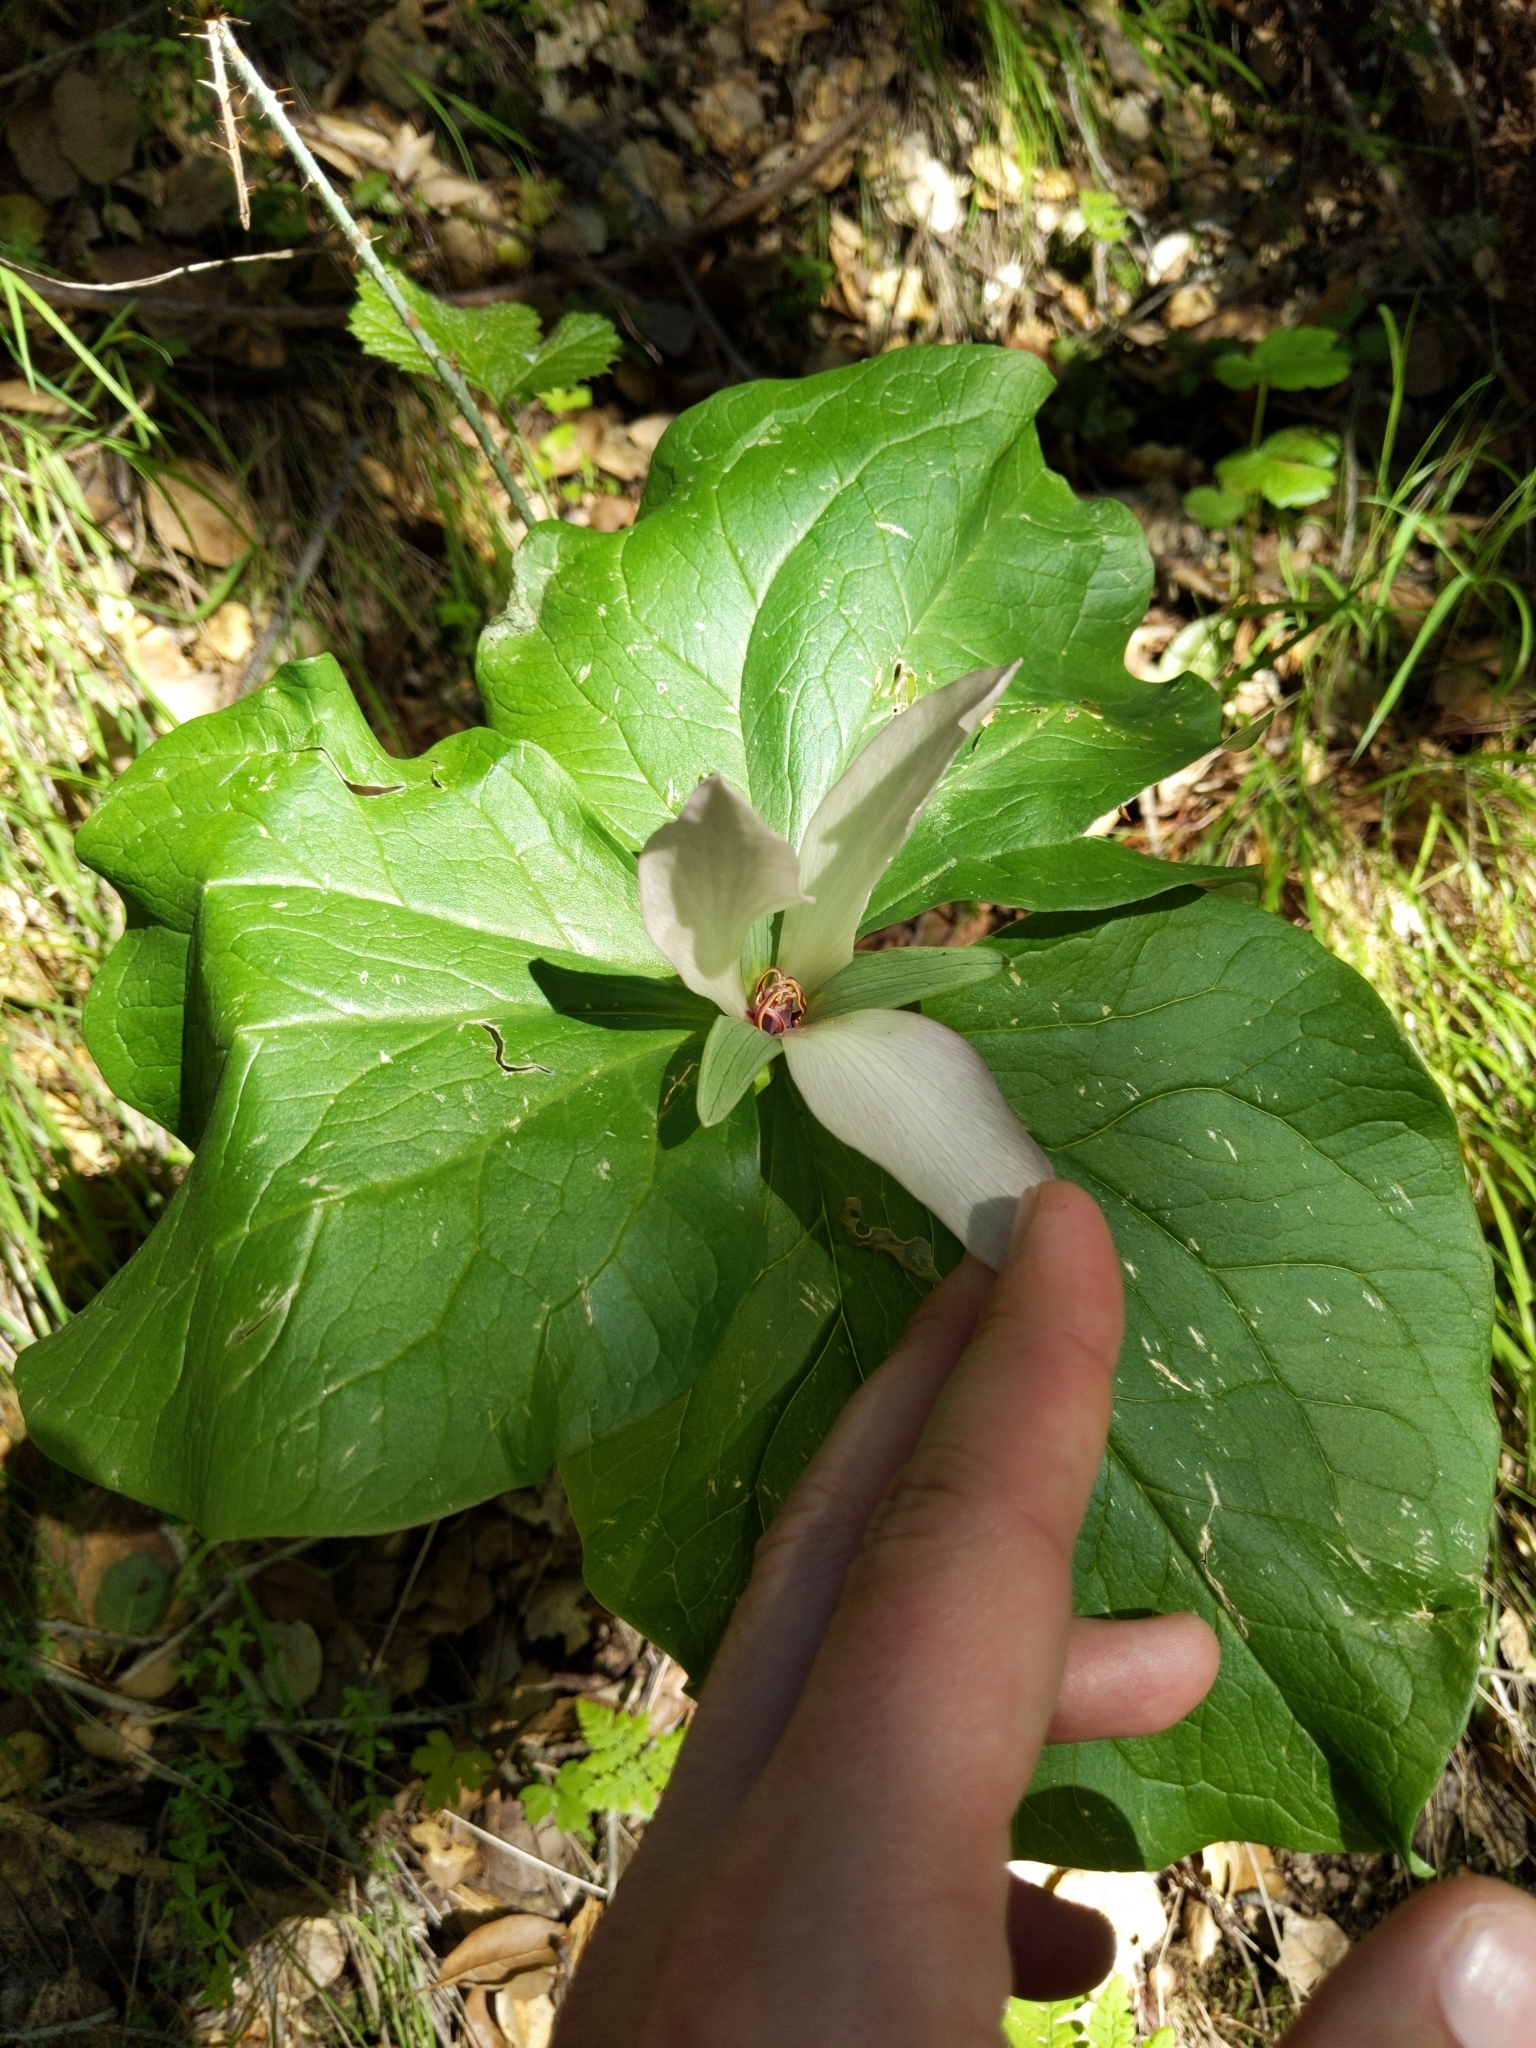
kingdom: Plantae
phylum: Tracheophyta
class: Liliopsida
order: Liliales
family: Melanthiaceae
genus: Trillium
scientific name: Trillium chloropetalum
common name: Giant trillium
